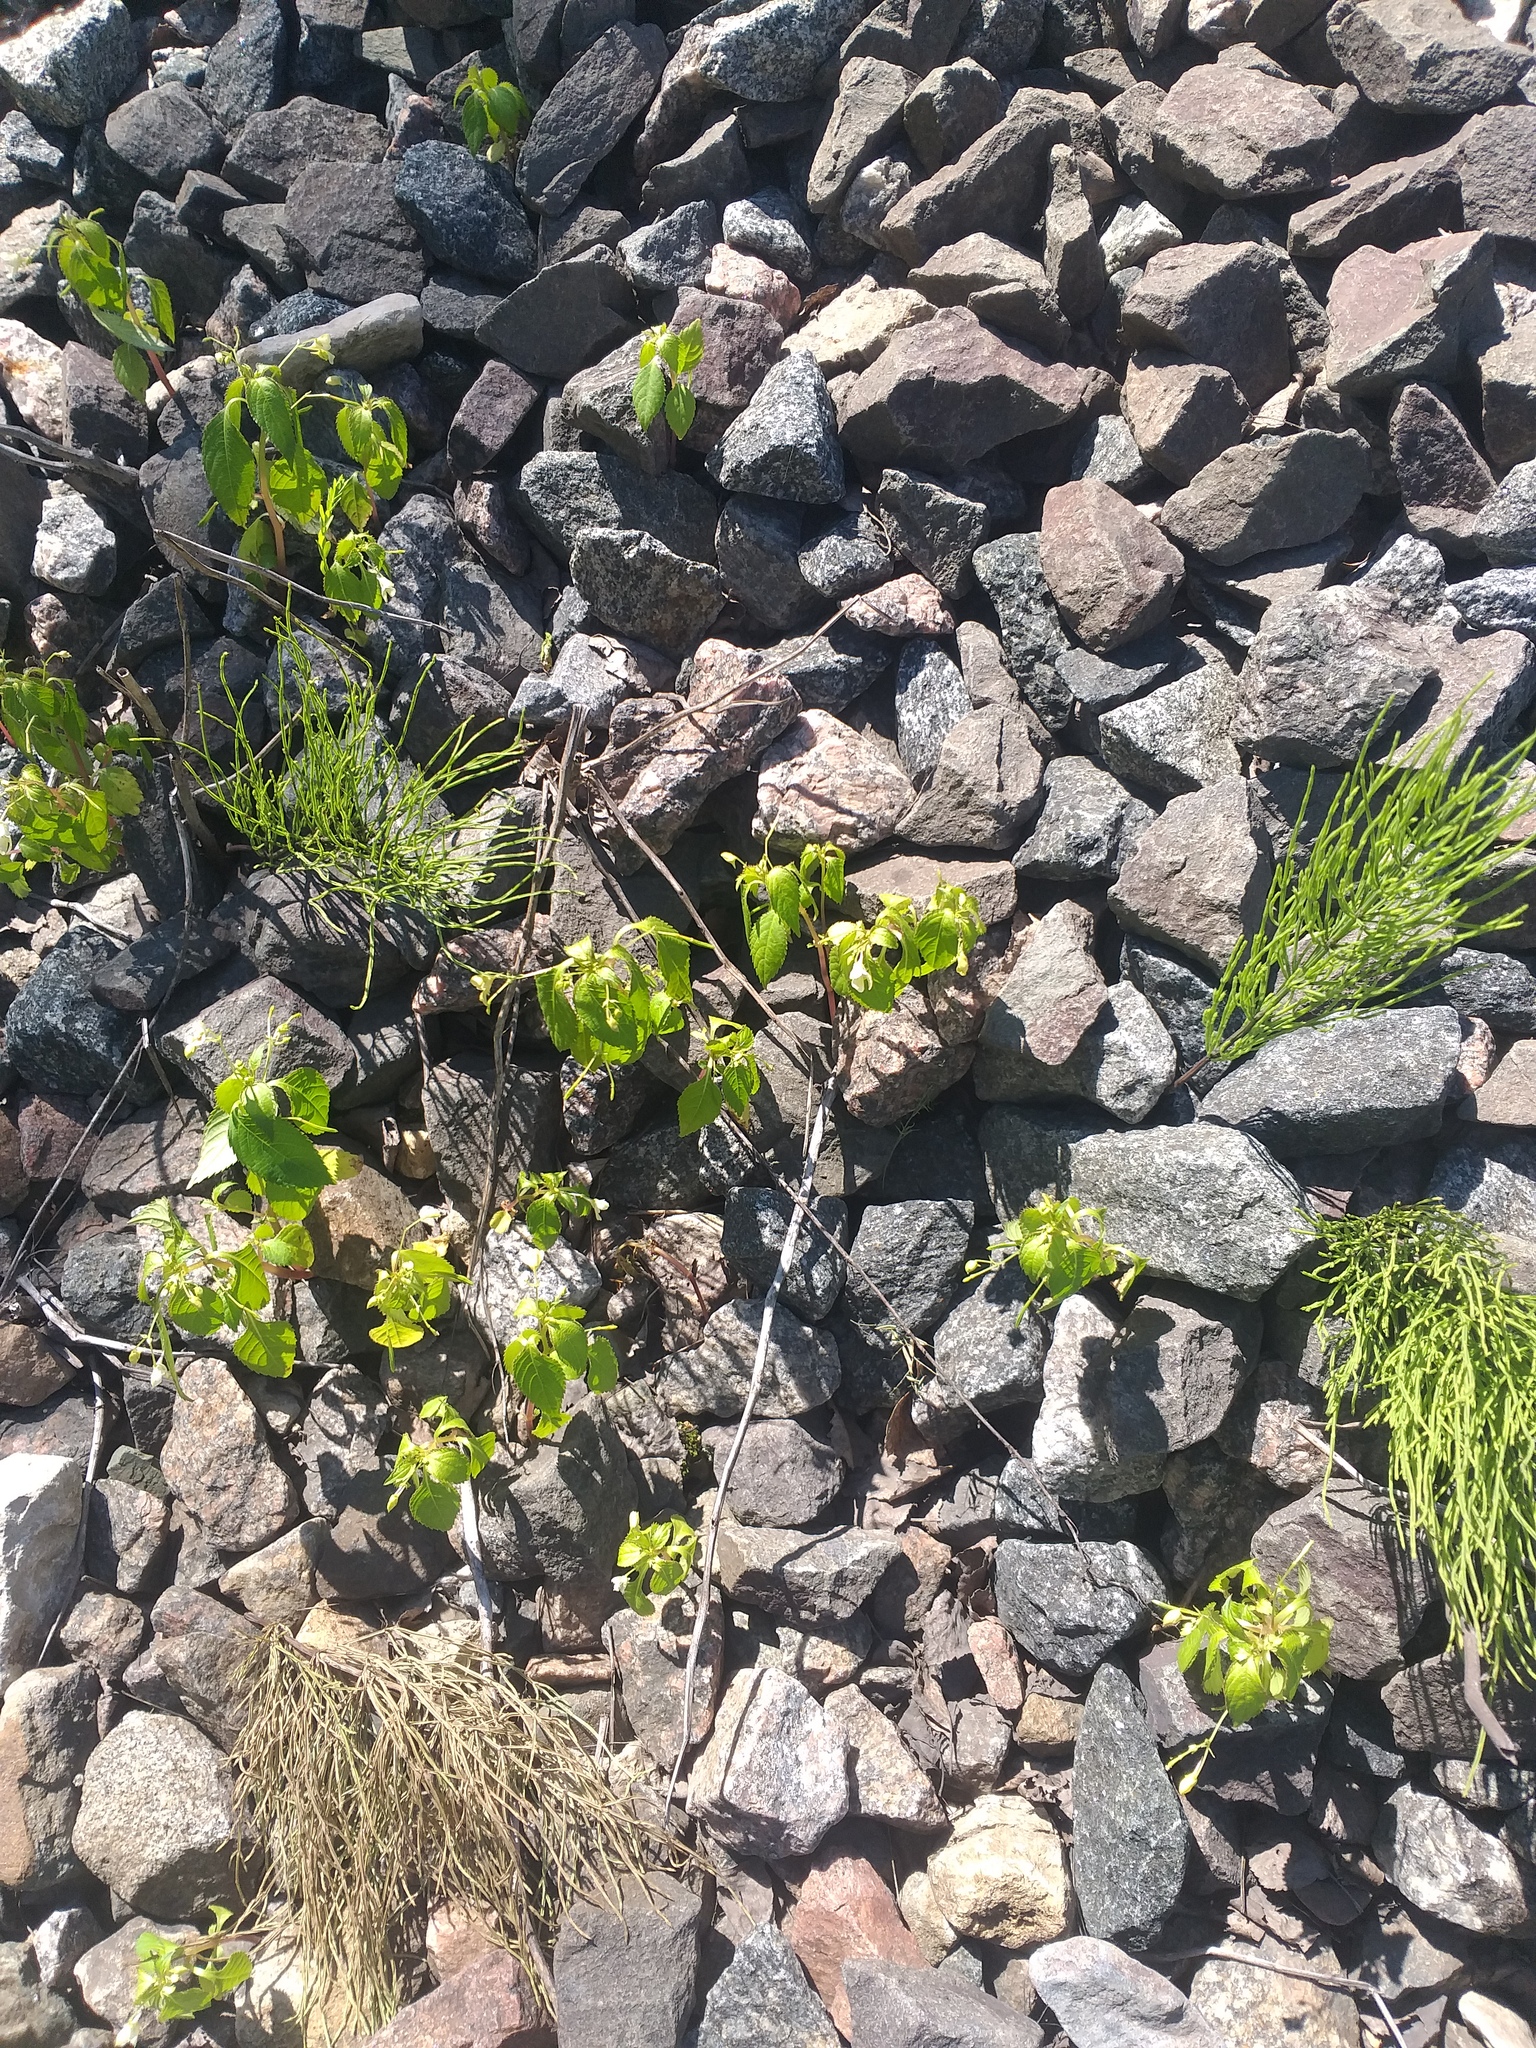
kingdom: Plantae
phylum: Tracheophyta
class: Magnoliopsida
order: Ericales
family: Balsaminaceae
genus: Impatiens
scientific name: Impatiens parviflora
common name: Small balsam
